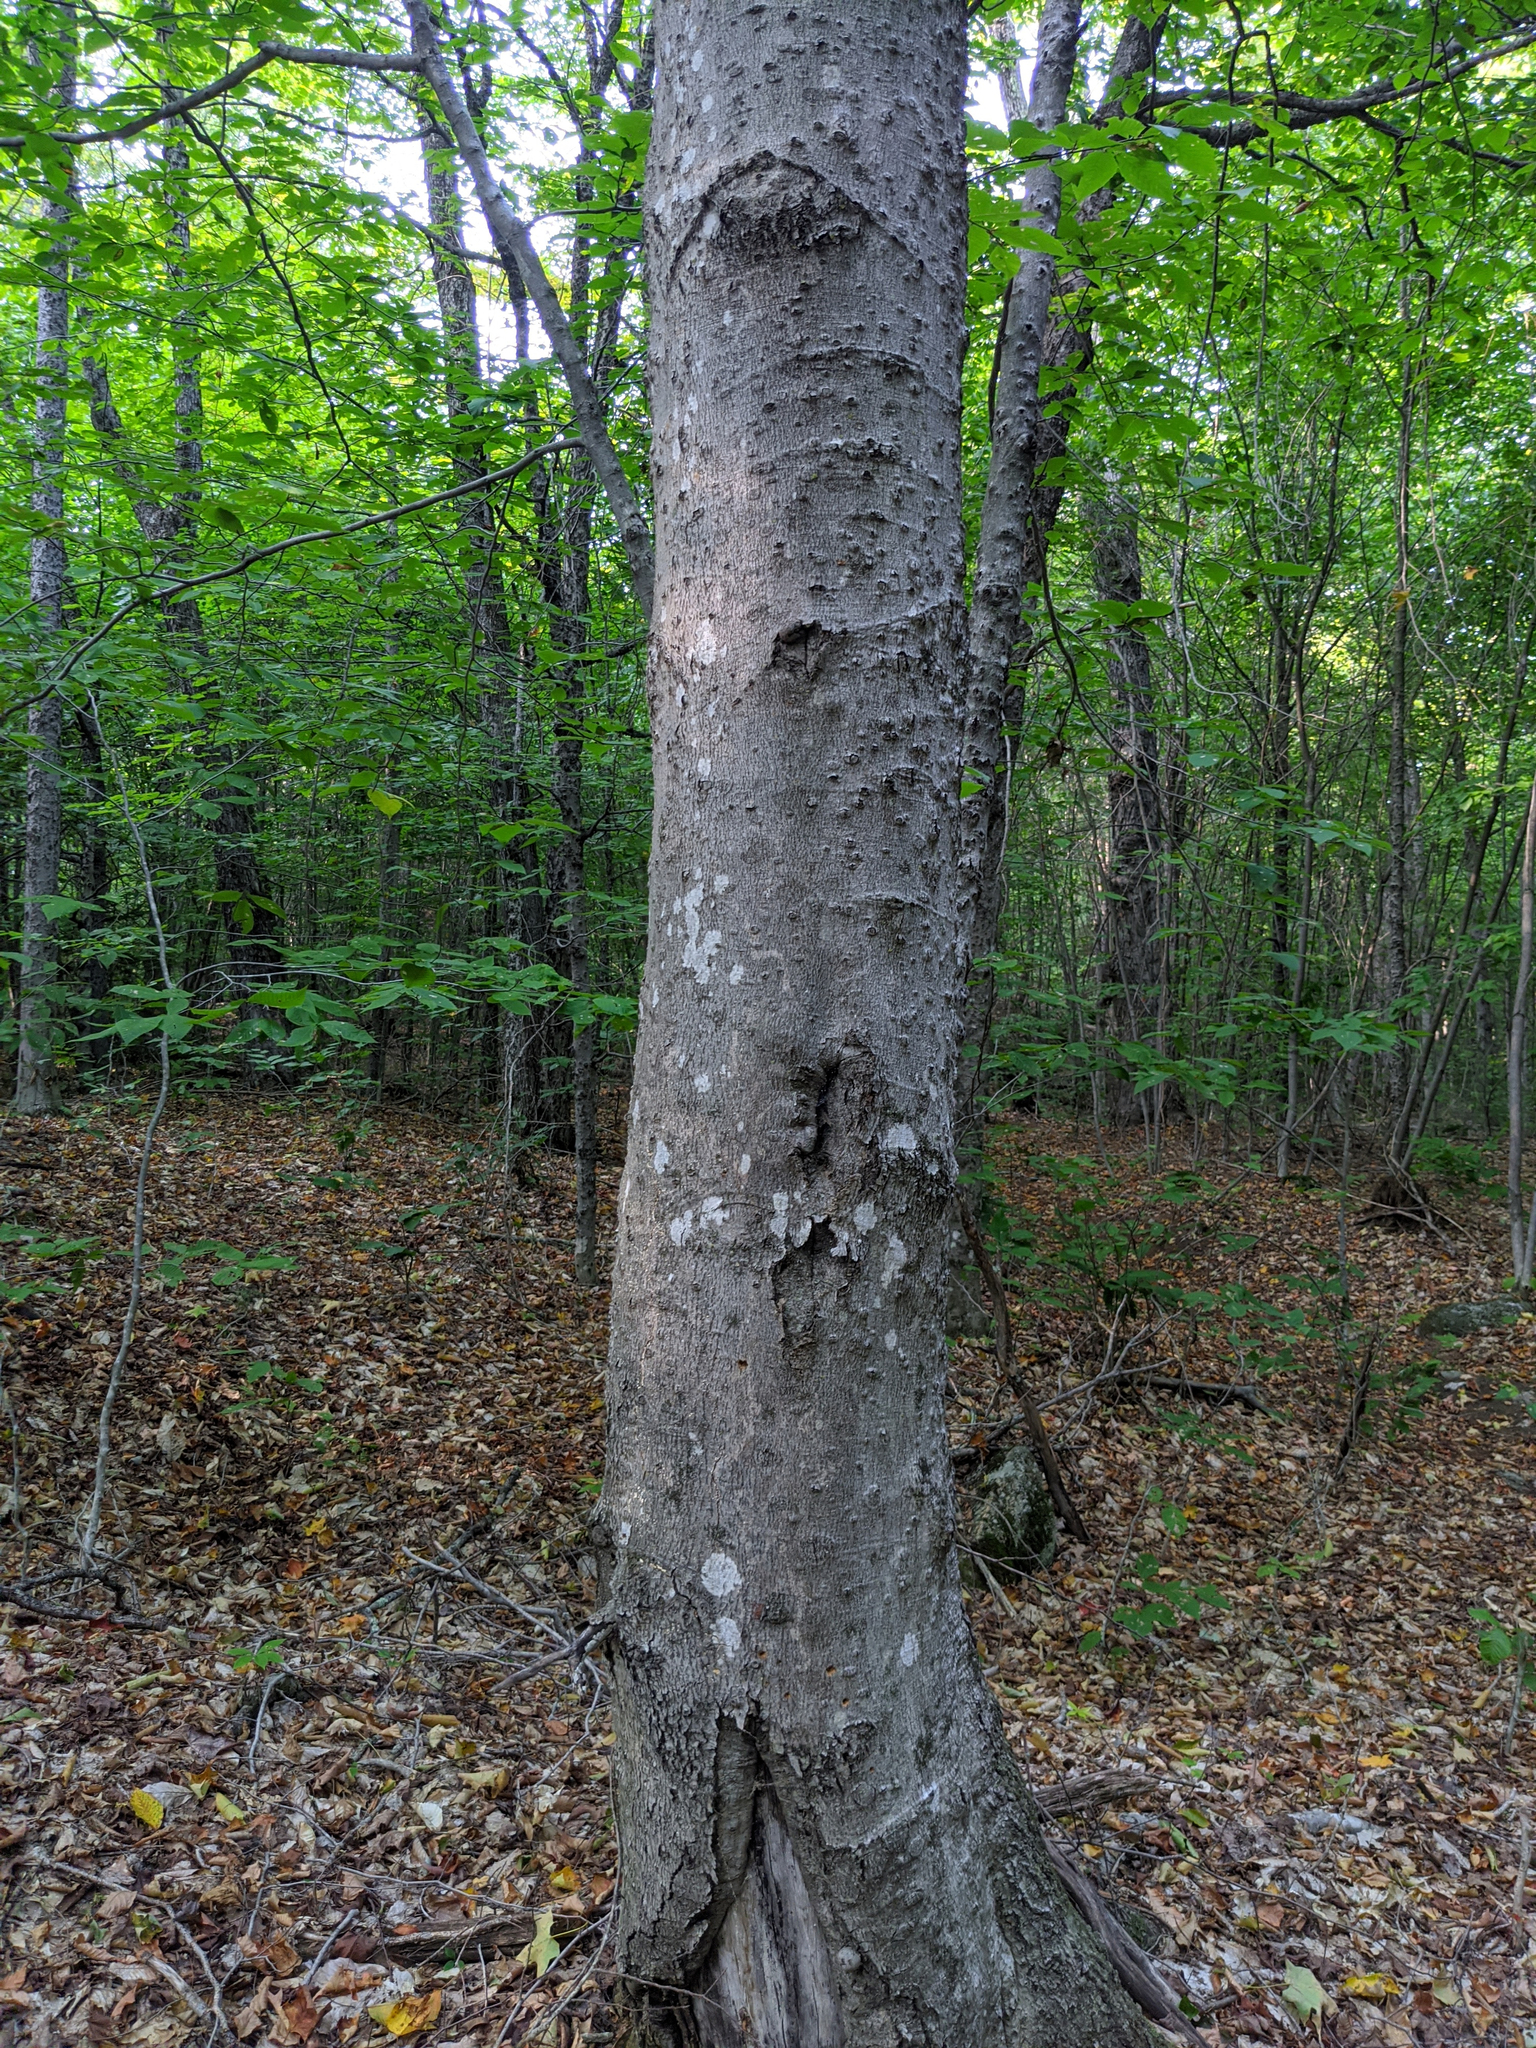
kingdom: Plantae
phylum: Tracheophyta
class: Magnoliopsida
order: Fagales
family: Fagaceae
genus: Fagus
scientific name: Fagus grandifolia
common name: American beech
